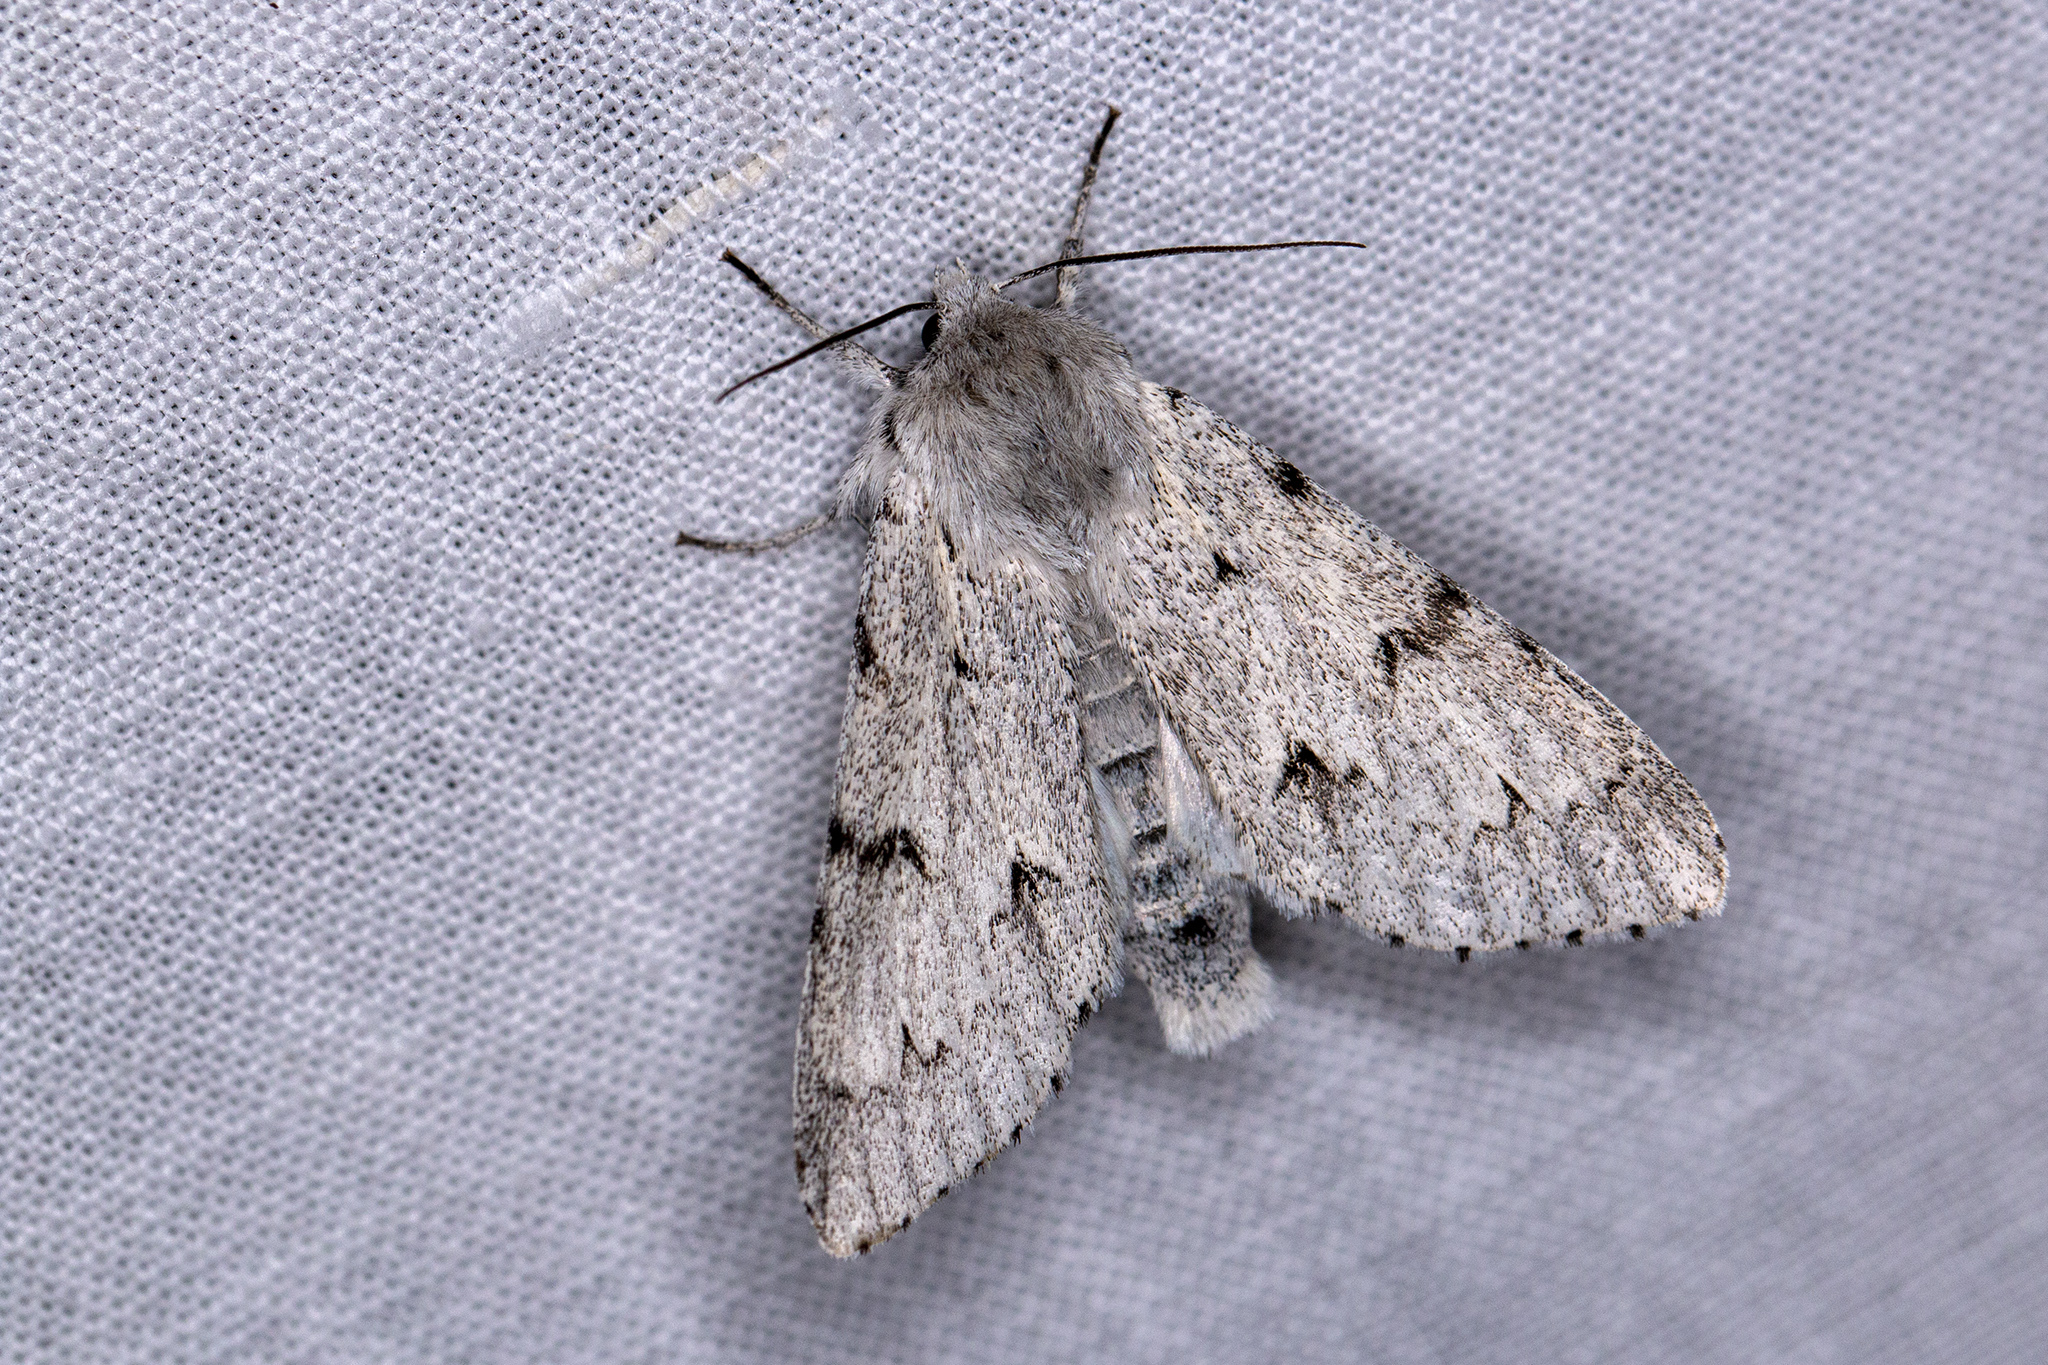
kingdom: Animalia
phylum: Arthropoda
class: Insecta
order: Lepidoptera
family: Noctuidae
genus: Acronicta
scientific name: Acronicta leporina
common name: Miller
